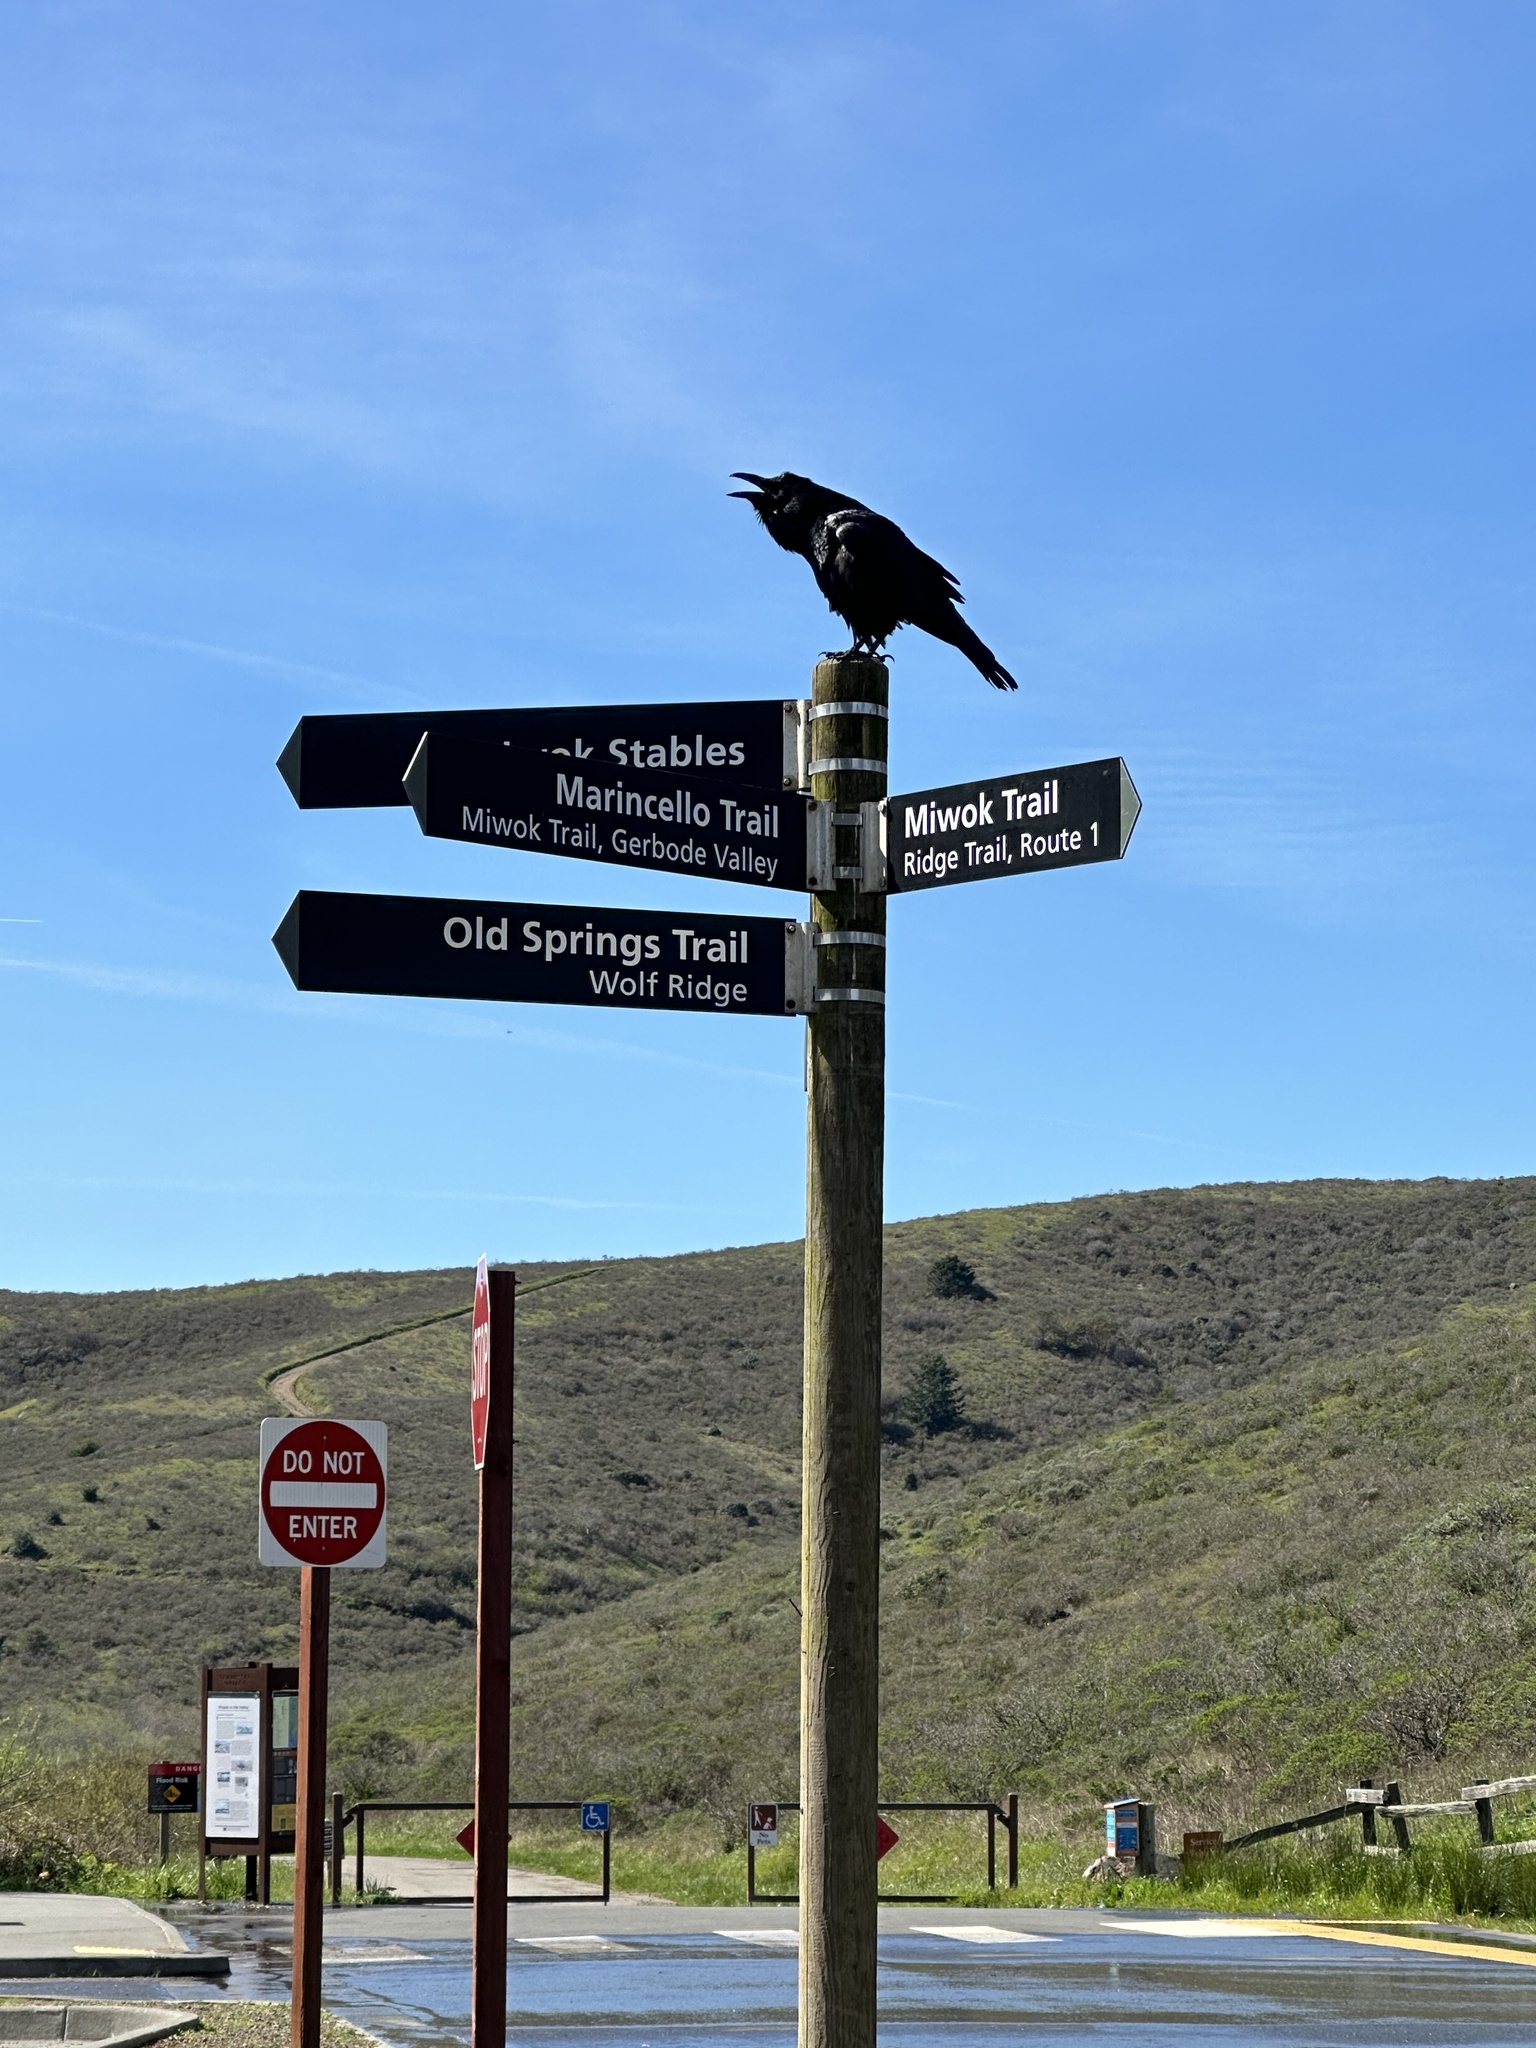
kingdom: Animalia
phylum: Chordata
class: Aves
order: Passeriformes
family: Corvidae
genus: Corvus
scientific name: Corvus corax
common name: Common raven
